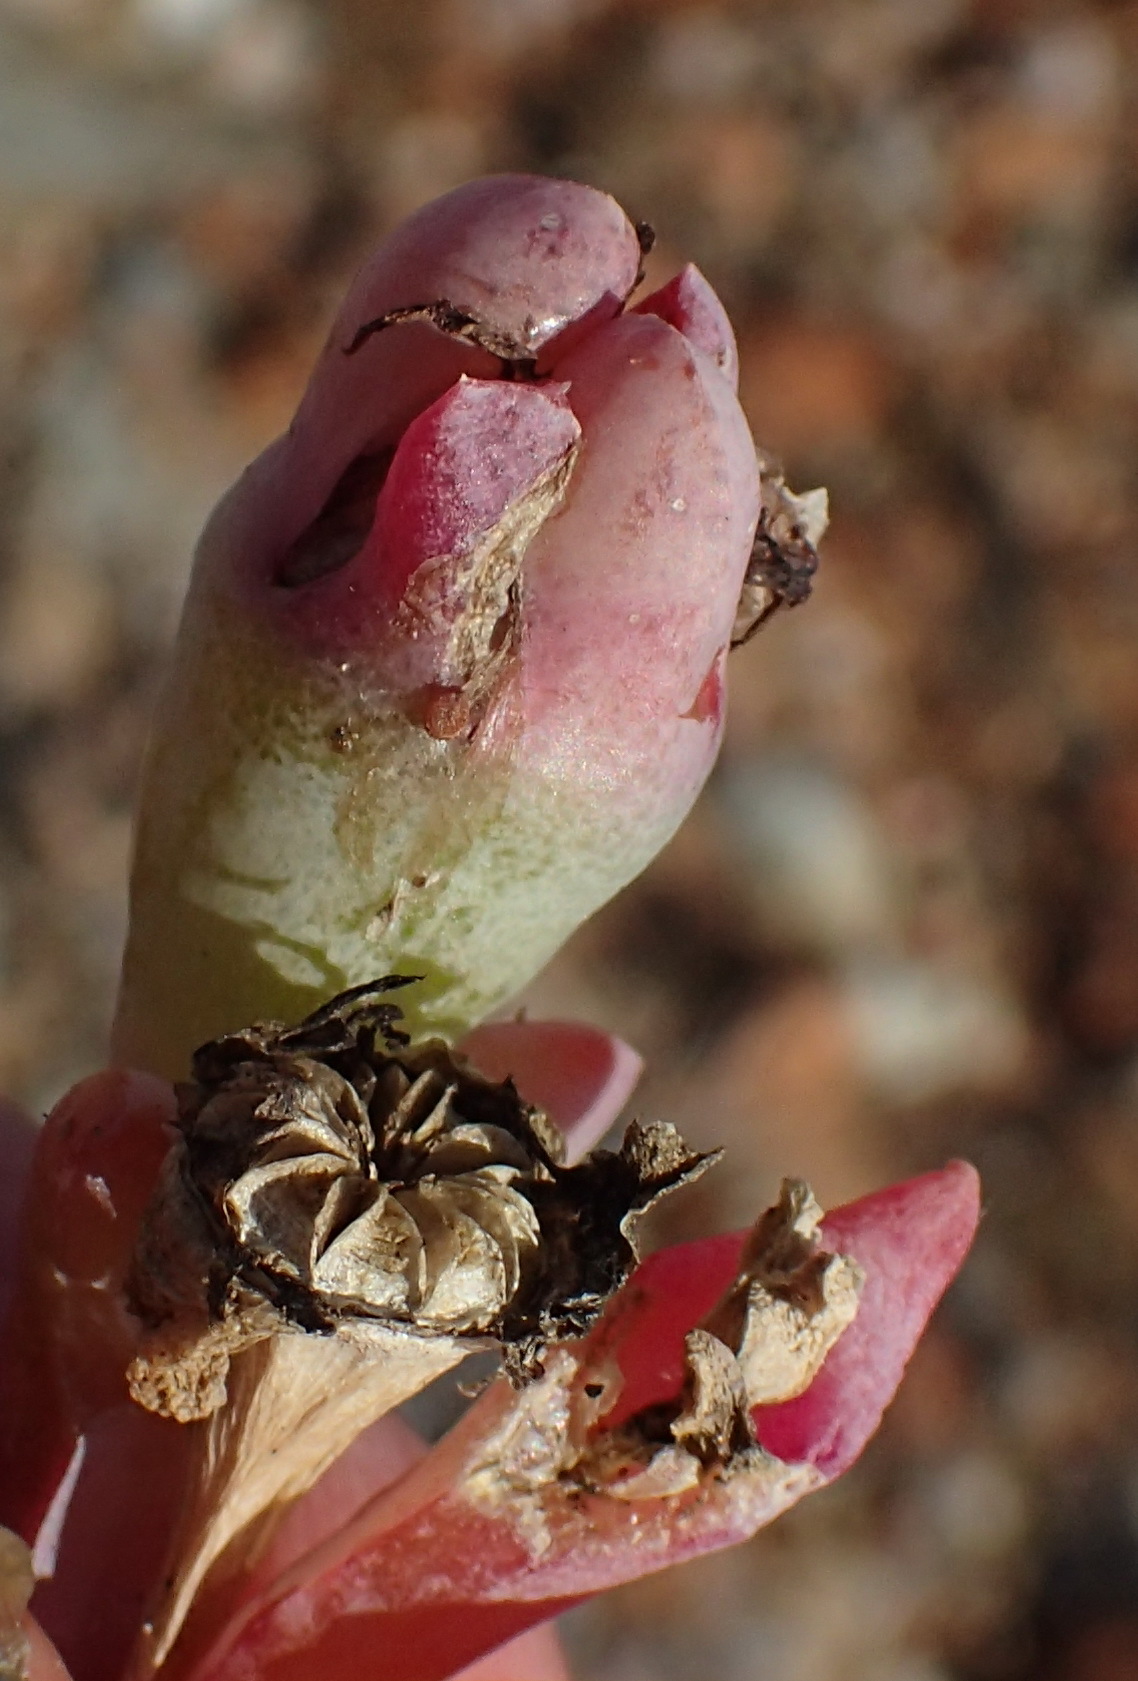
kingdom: Plantae
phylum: Tracheophyta
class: Magnoliopsida
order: Caryophyllales
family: Aizoaceae
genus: Malephora
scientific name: Malephora purpureocrocea
